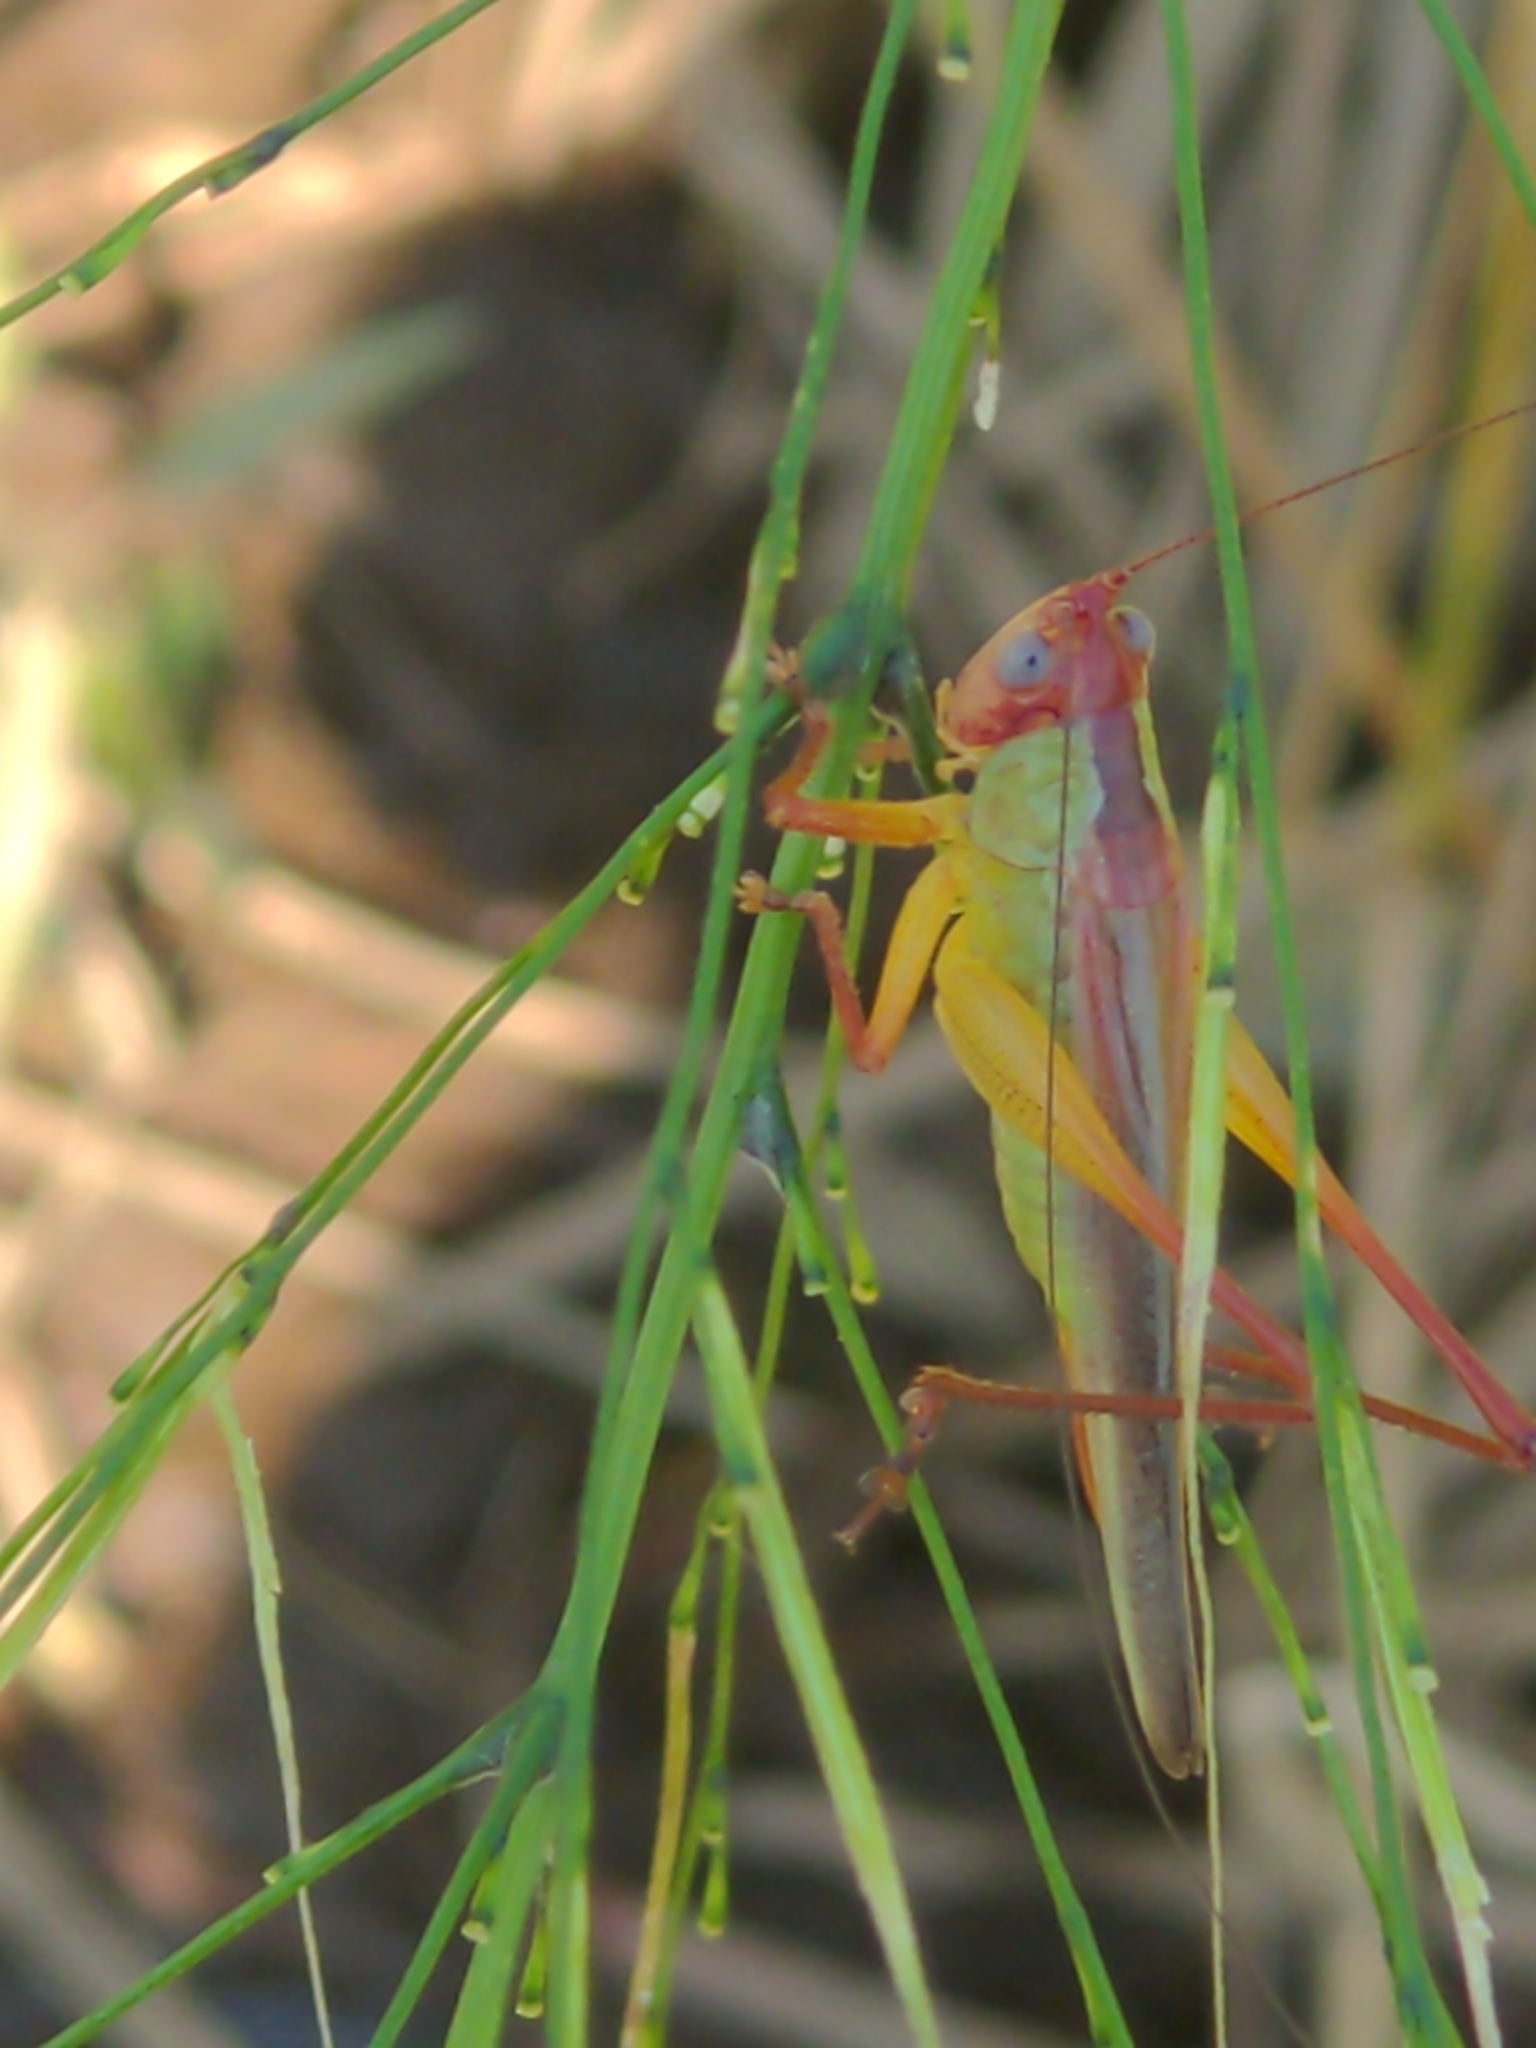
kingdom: Animalia
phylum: Arthropoda
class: Insecta
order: Orthoptera
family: Tettigoniidae
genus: Orchelimum
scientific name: Orchelimum pulchellum
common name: Handsome meadow katydid
